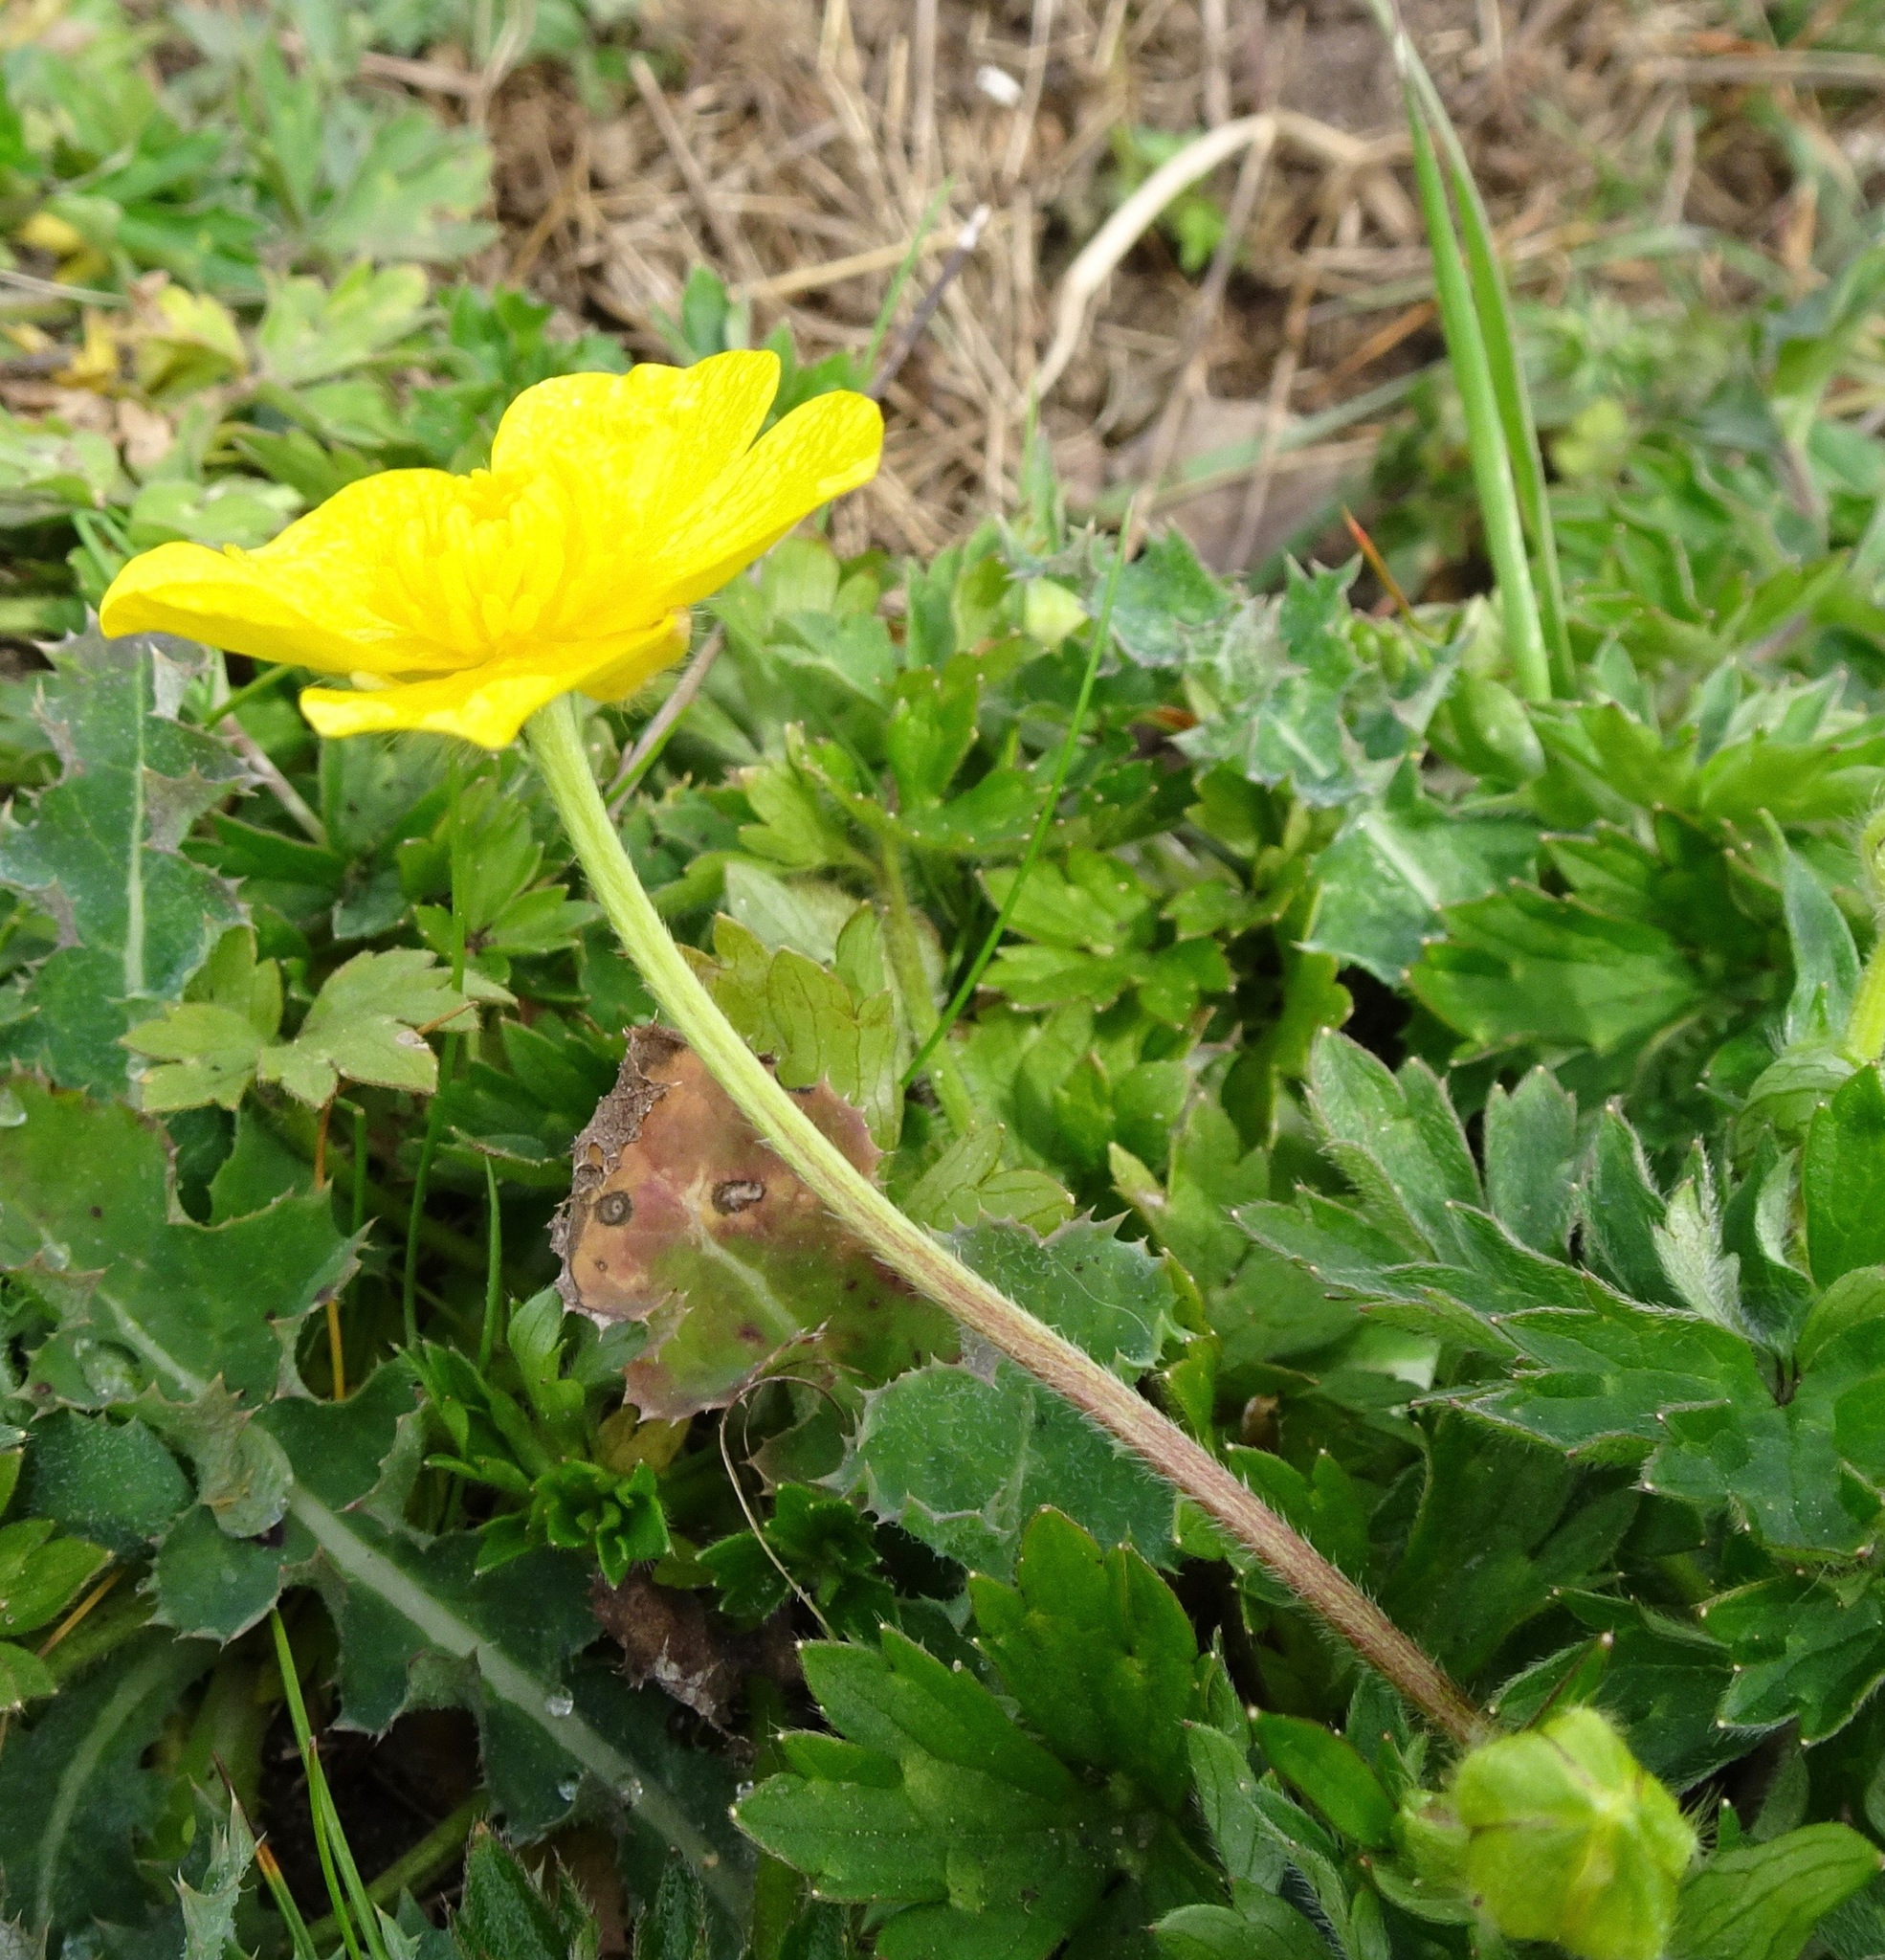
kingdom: Plantae
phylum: Tracheophyta
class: Magnoliopsida
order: Ranunculales
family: Ranunculaceae
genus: Ranunculus
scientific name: Ranunculus repens
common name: Creeping buttercup
